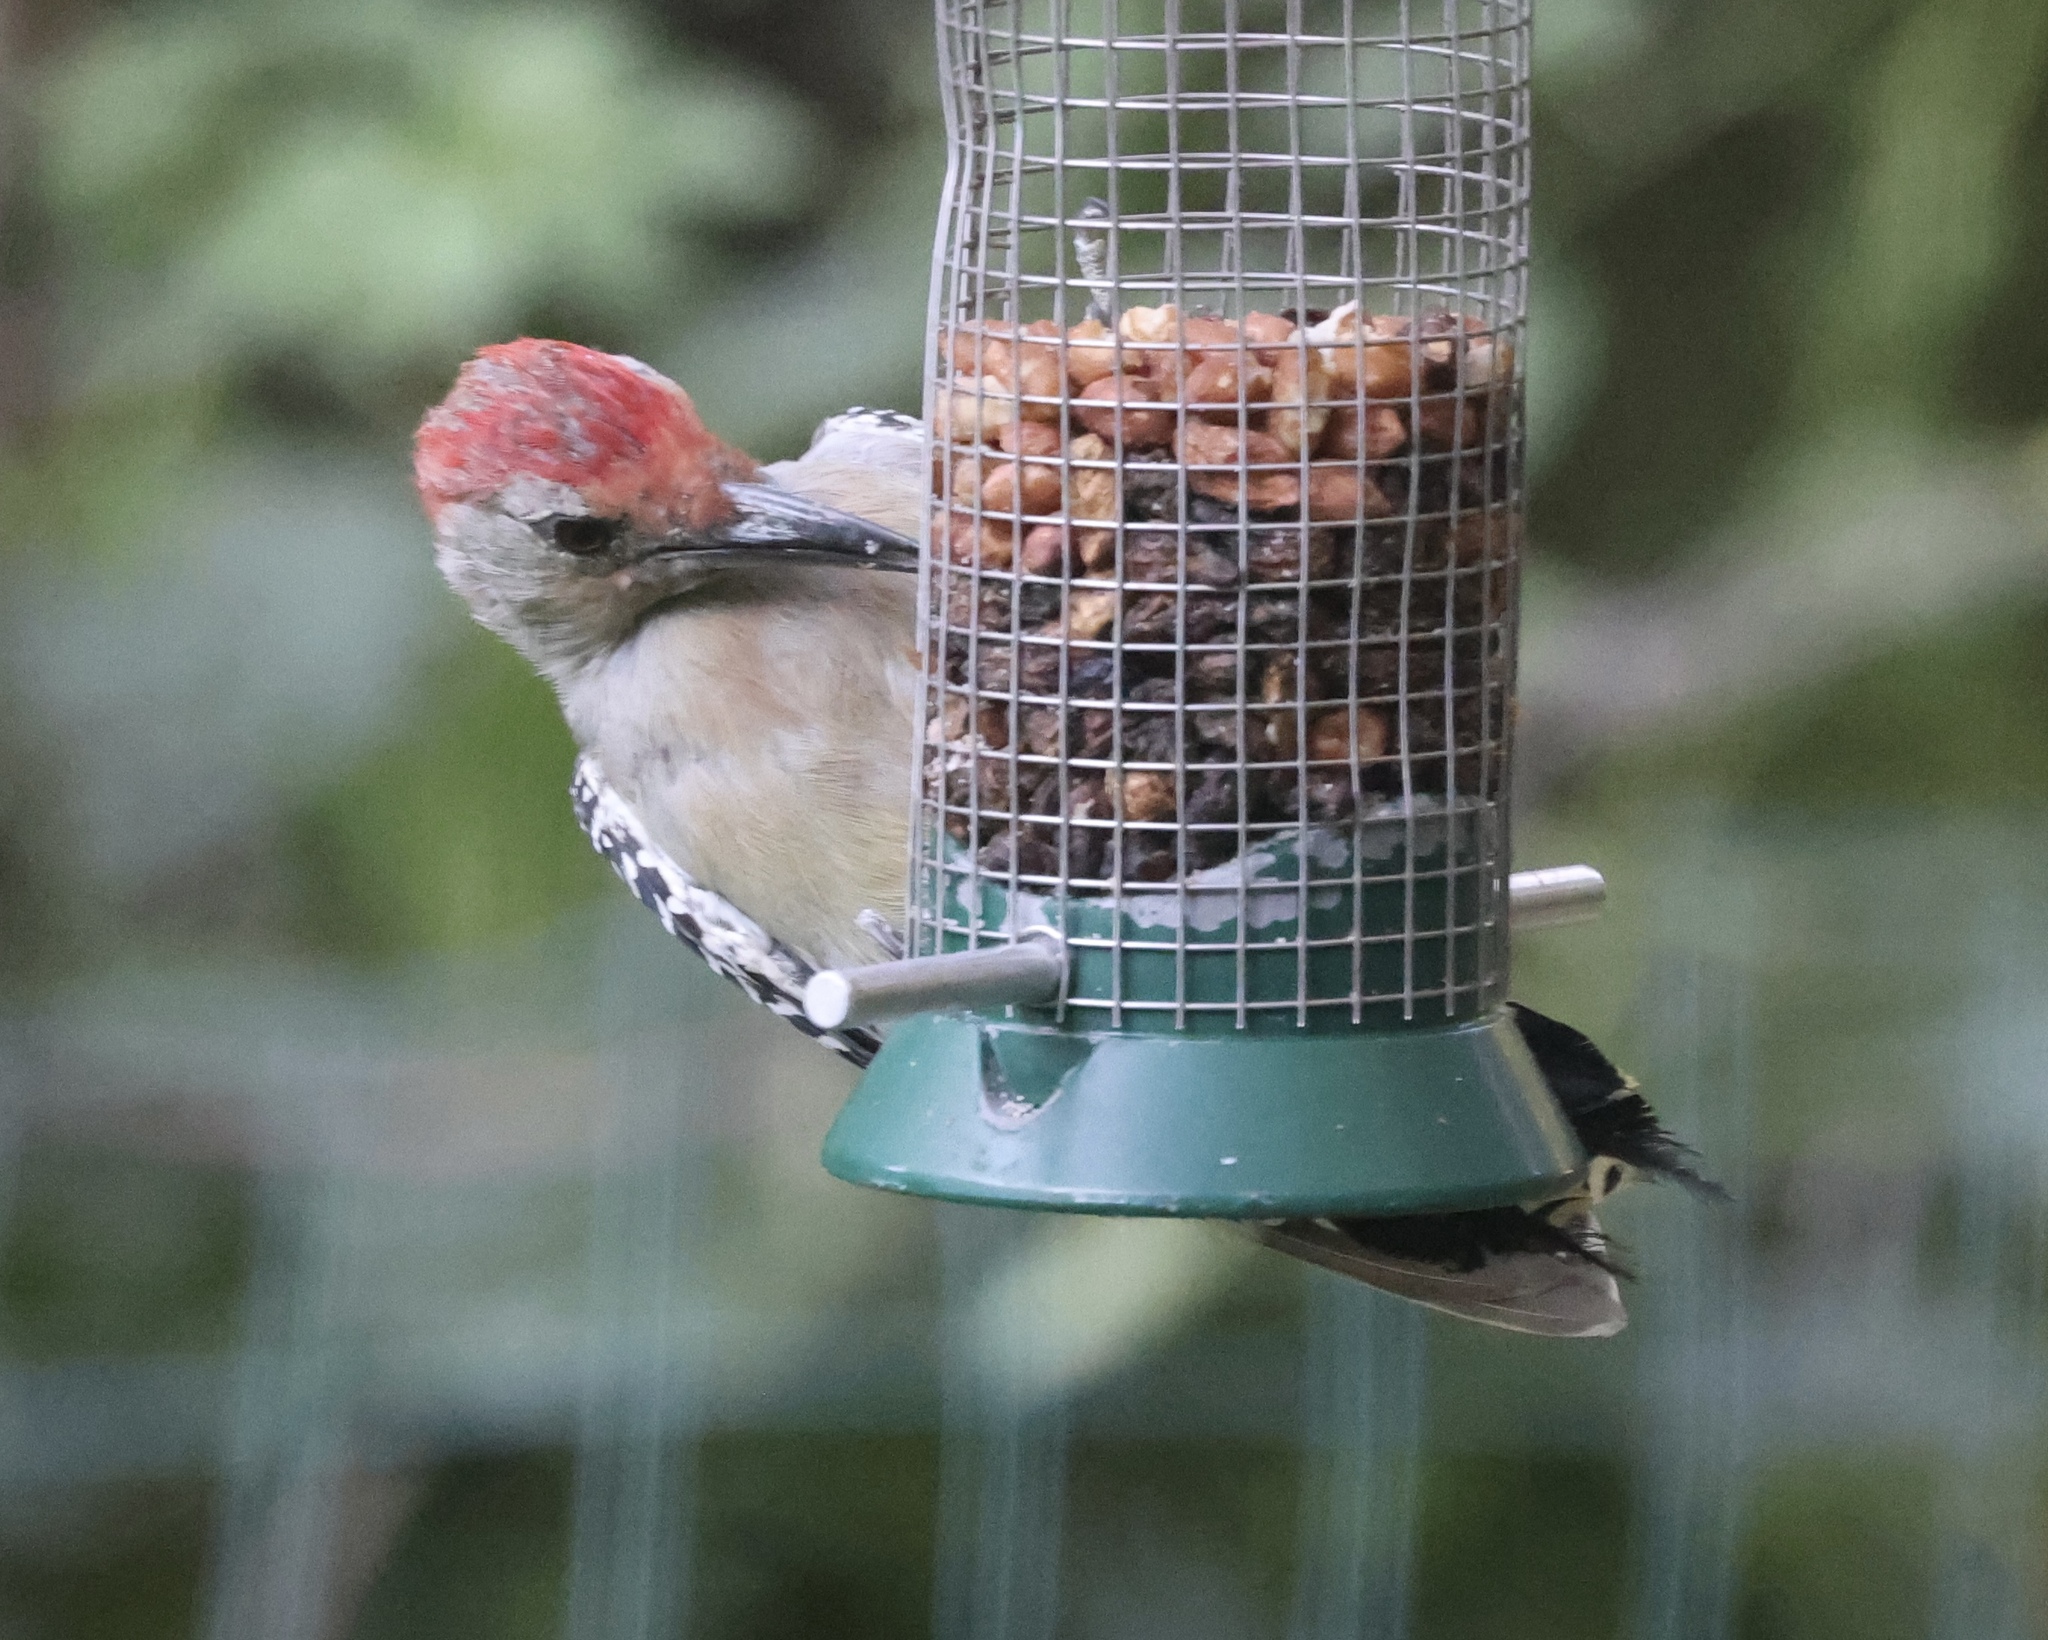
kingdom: Animalia
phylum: Chordata
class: Aves
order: Piciformes
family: Picidae
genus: Melanerpes
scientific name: Melanerpes carolinus
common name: Red-bellied woodpecker
